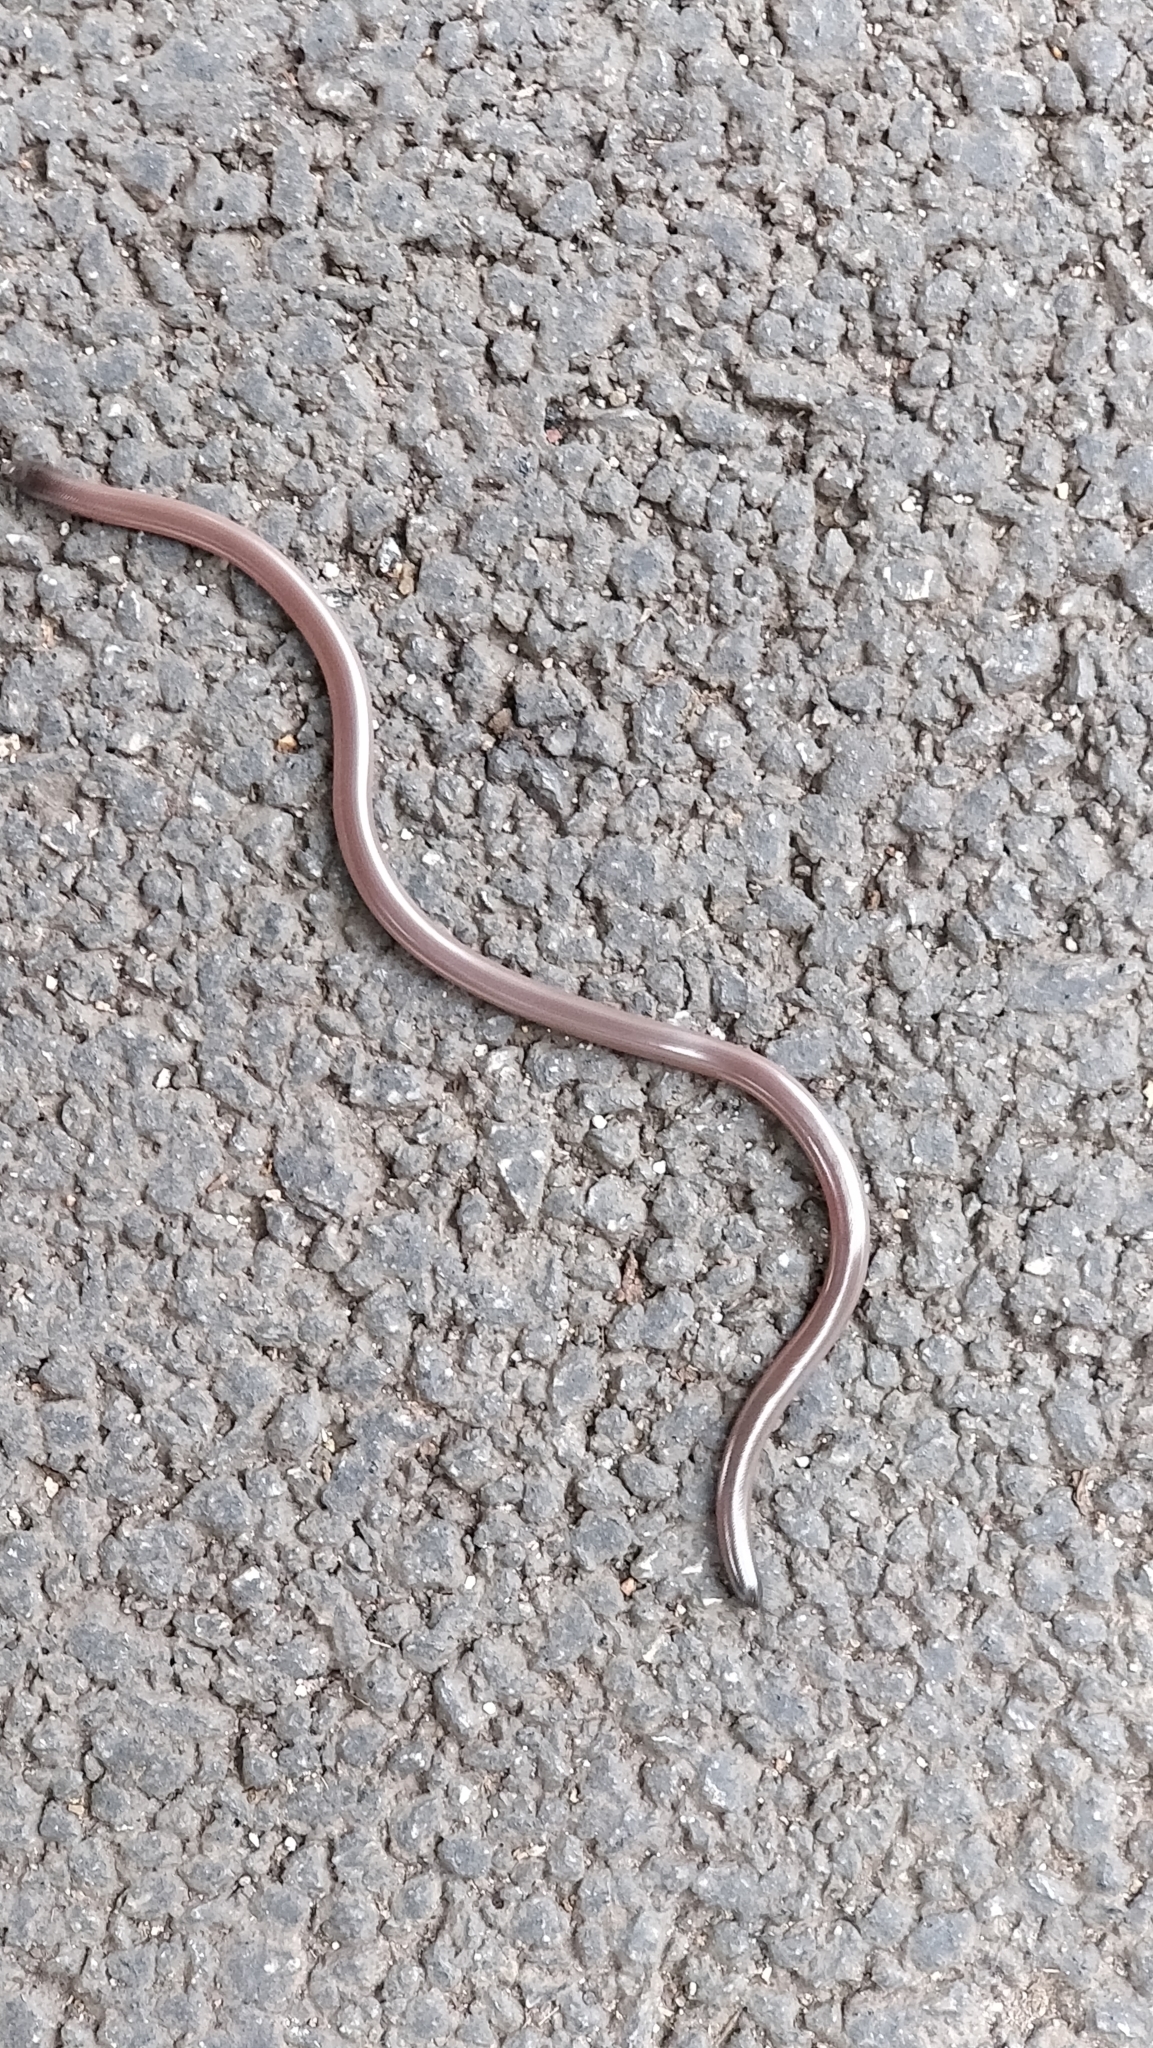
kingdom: Animalia
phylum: Chordata
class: Squamata
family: Typhlopidae
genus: Indotyphlops
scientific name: Indotyphlops braminus
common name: Brahminy blindsnake
